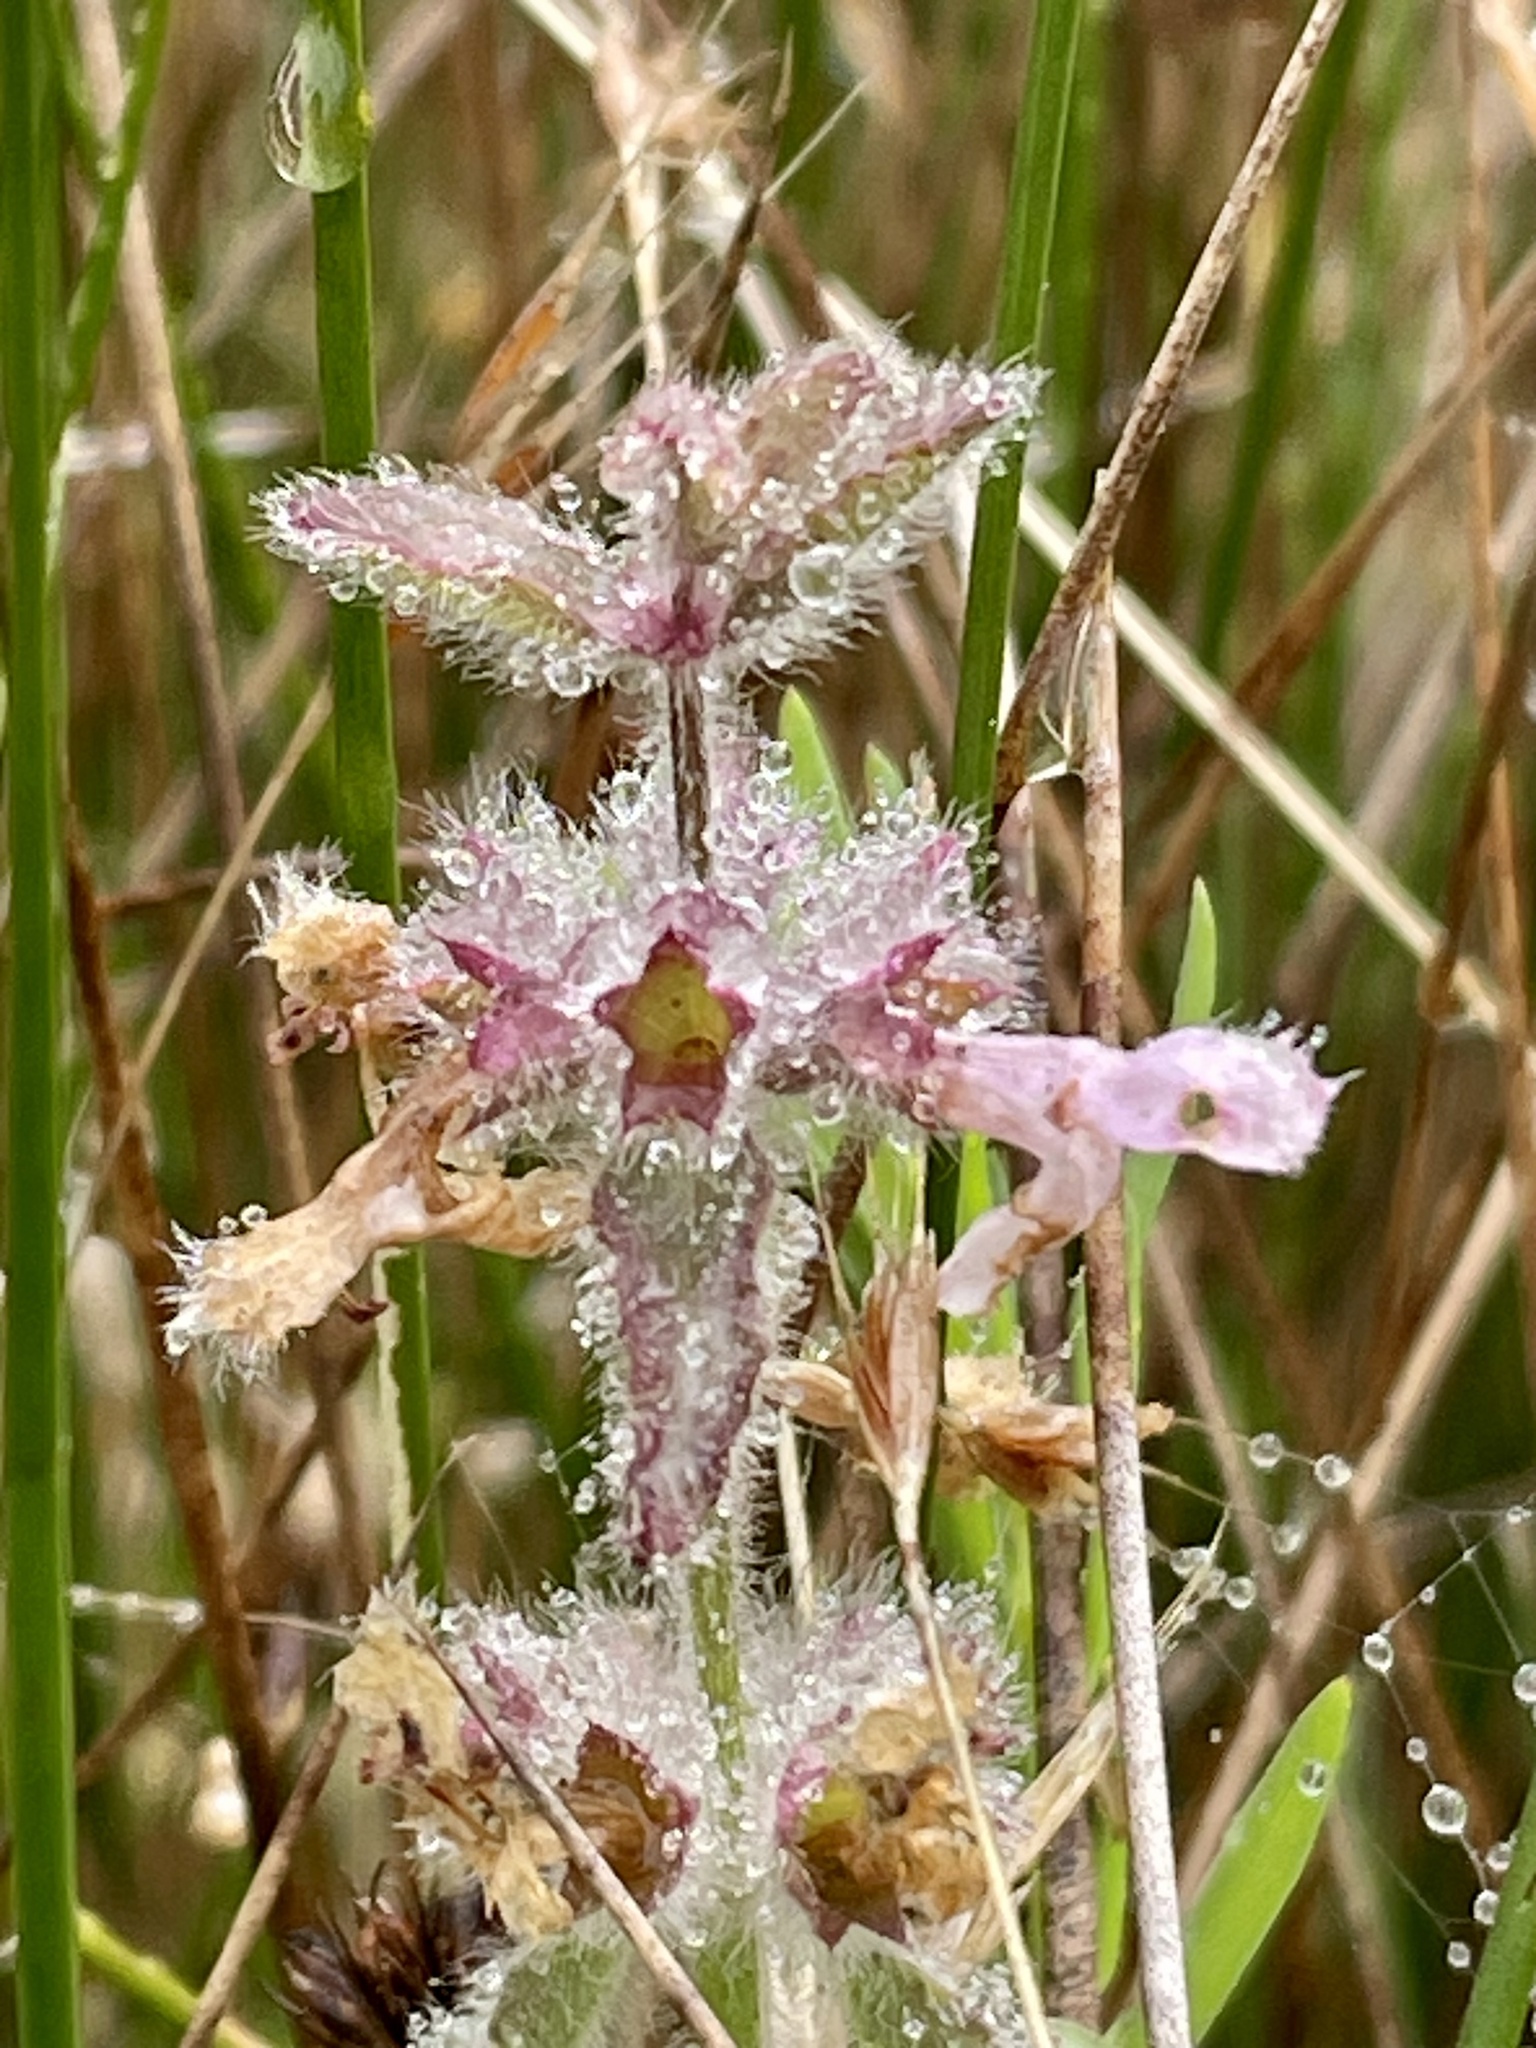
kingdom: Plantae
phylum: Tracheophyta
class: Magnoliopsida
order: Lamiales
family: Lamiaceae
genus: Stachys
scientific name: Stachys ajugoides
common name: Hedge-nettle
